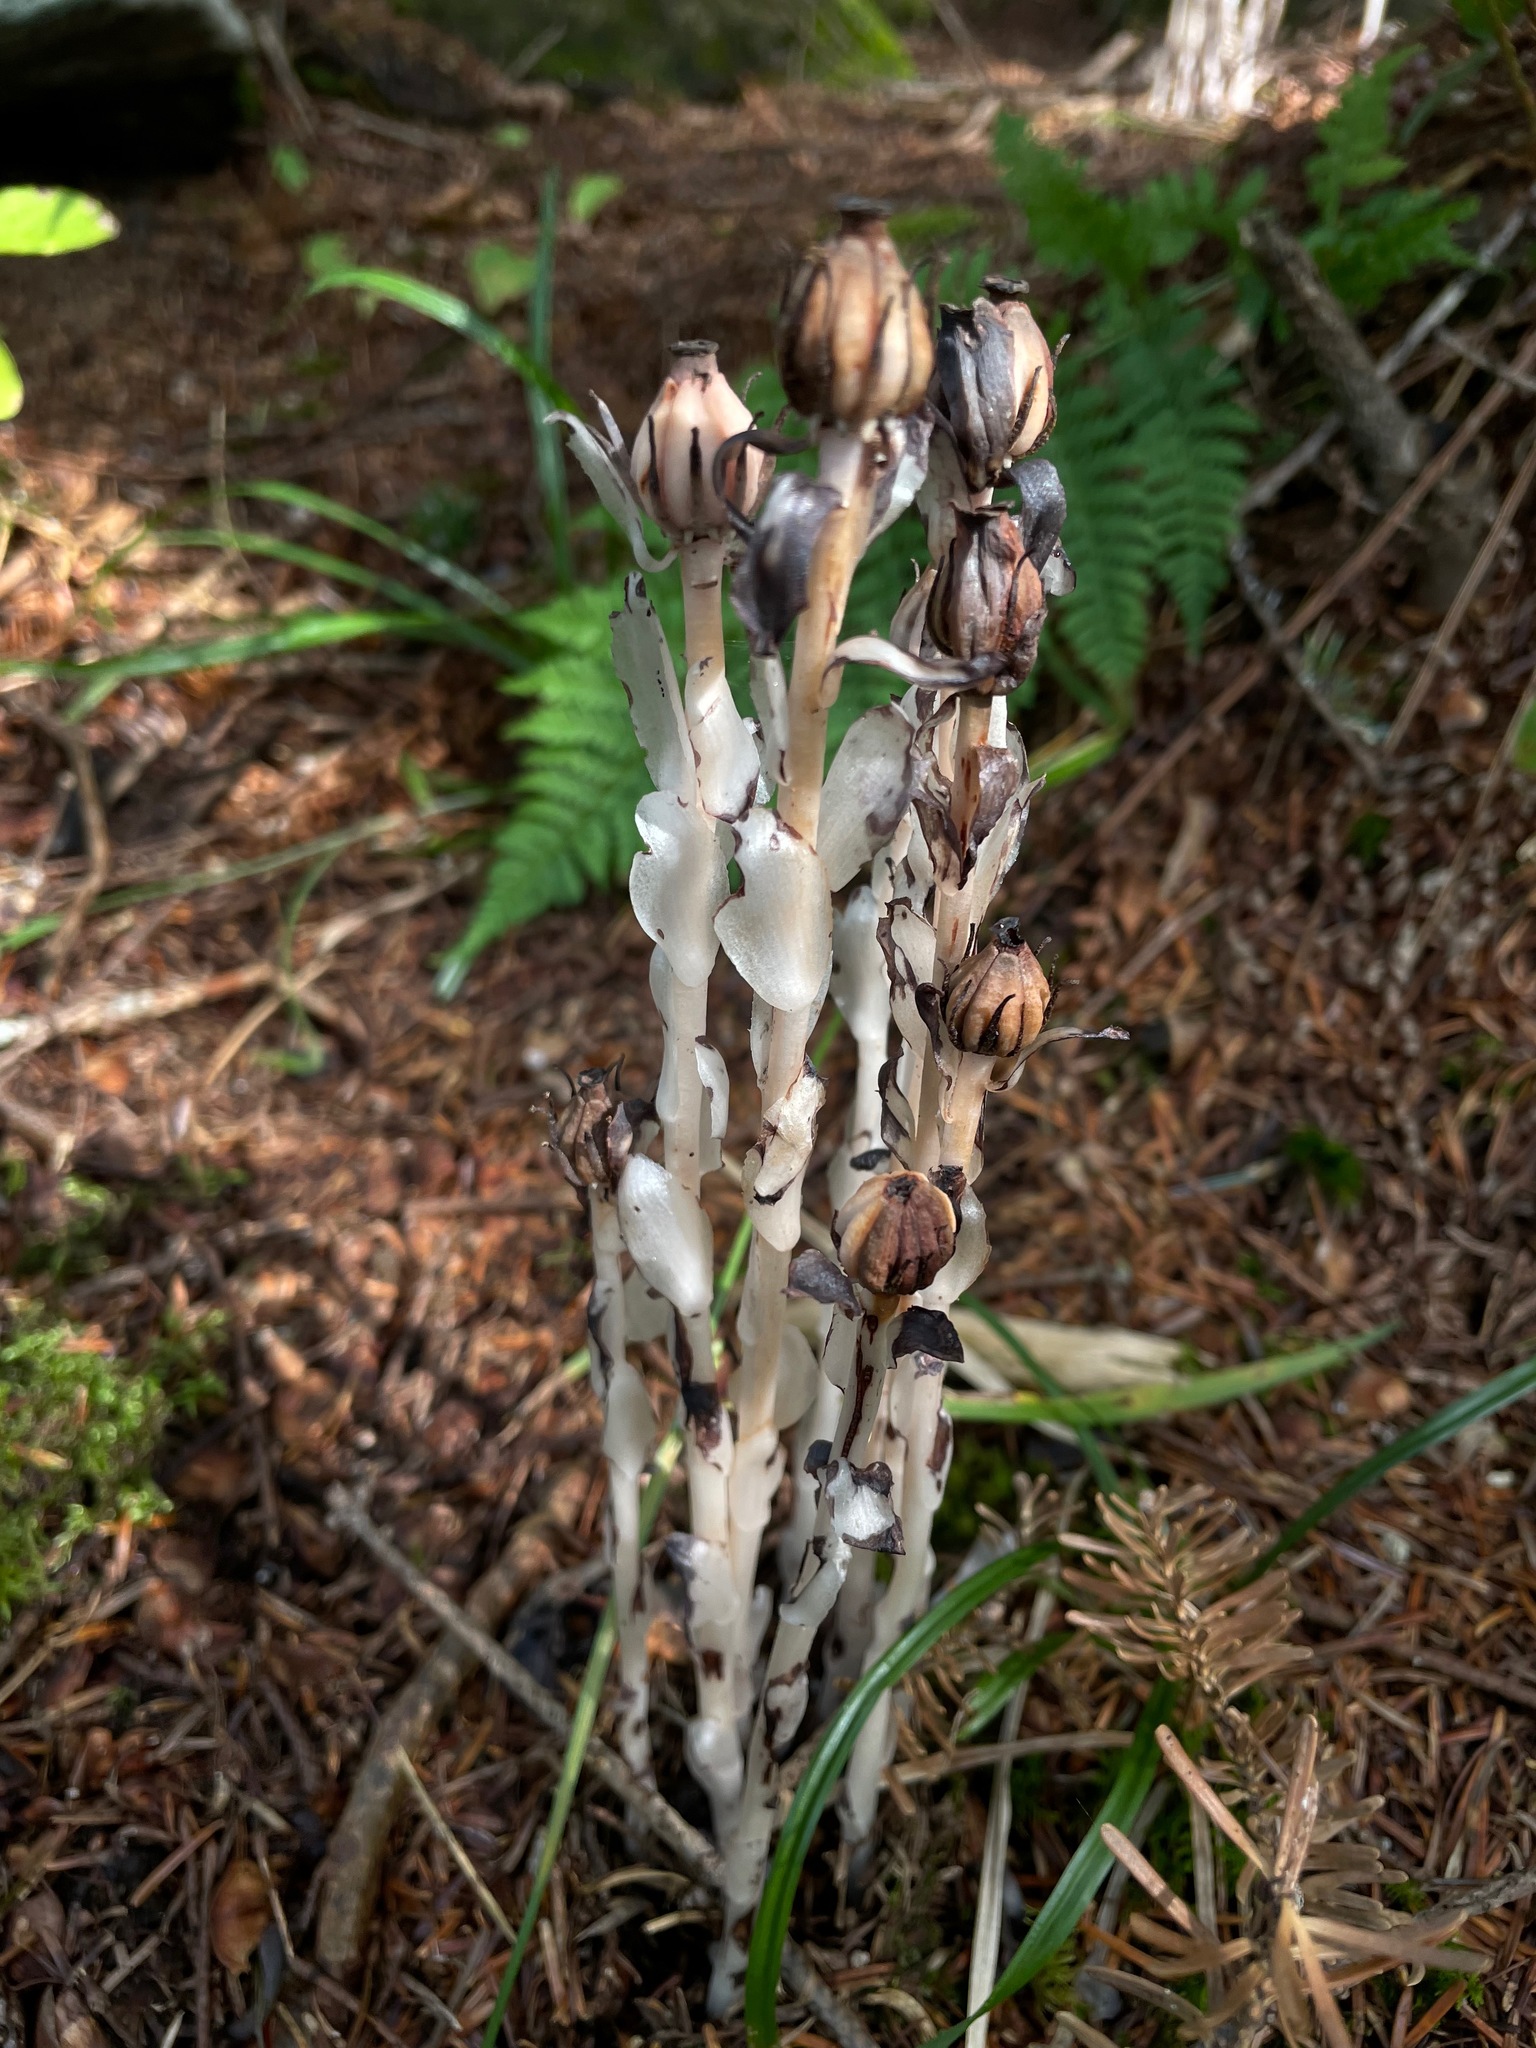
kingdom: Plantae
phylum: Tracheophyta
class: Magnoliopsida
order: Ericales
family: Ericaceae
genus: Monotropa
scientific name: Monotropa uniflora
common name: Convulsion root
